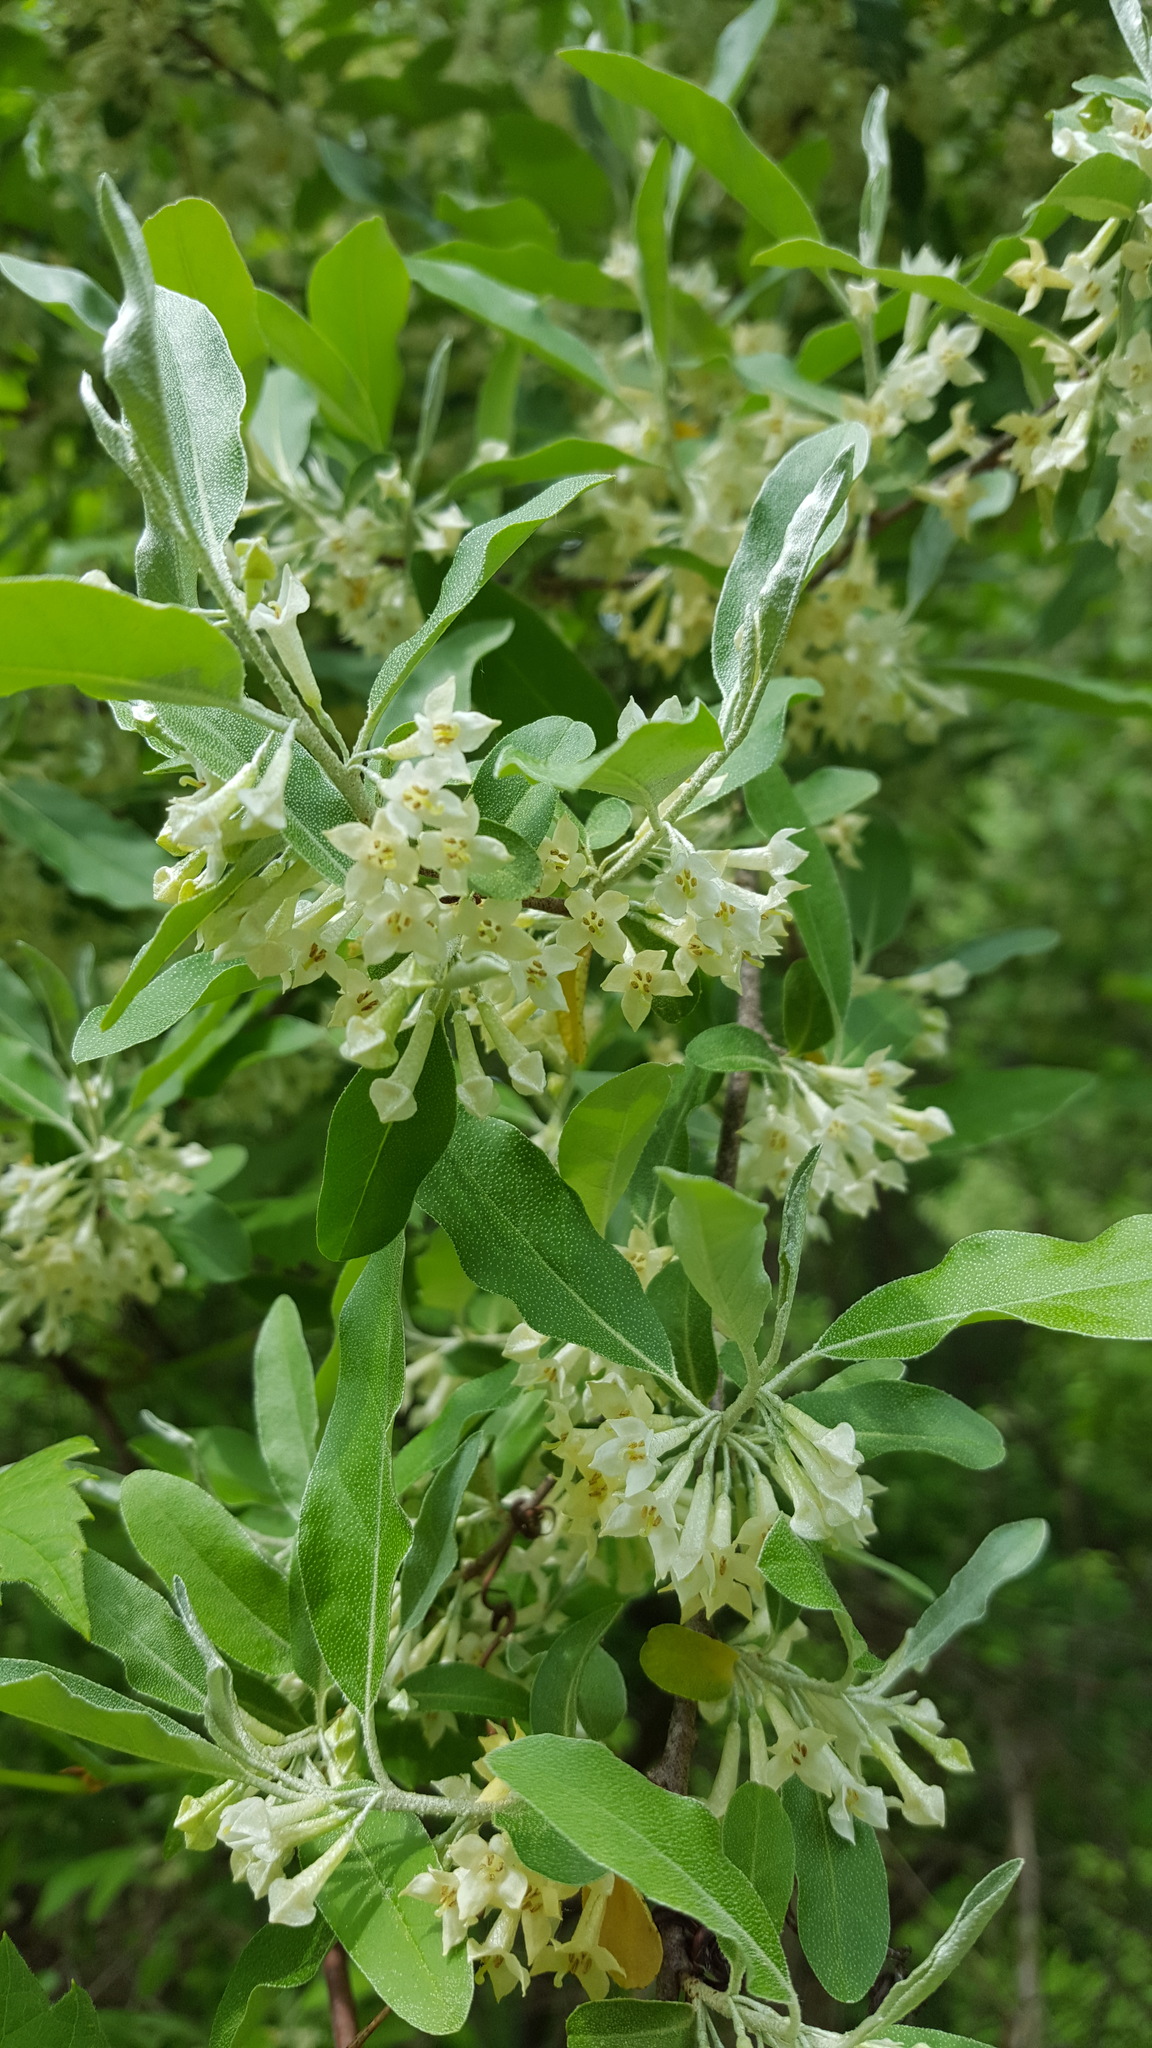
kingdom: Plantae
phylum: Tracheophyta
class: Magnoliopsida
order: Rosales
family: Elaeagnaceae
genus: Elaeagnus
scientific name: Elaeagnus umbellata
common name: Autumn olive
